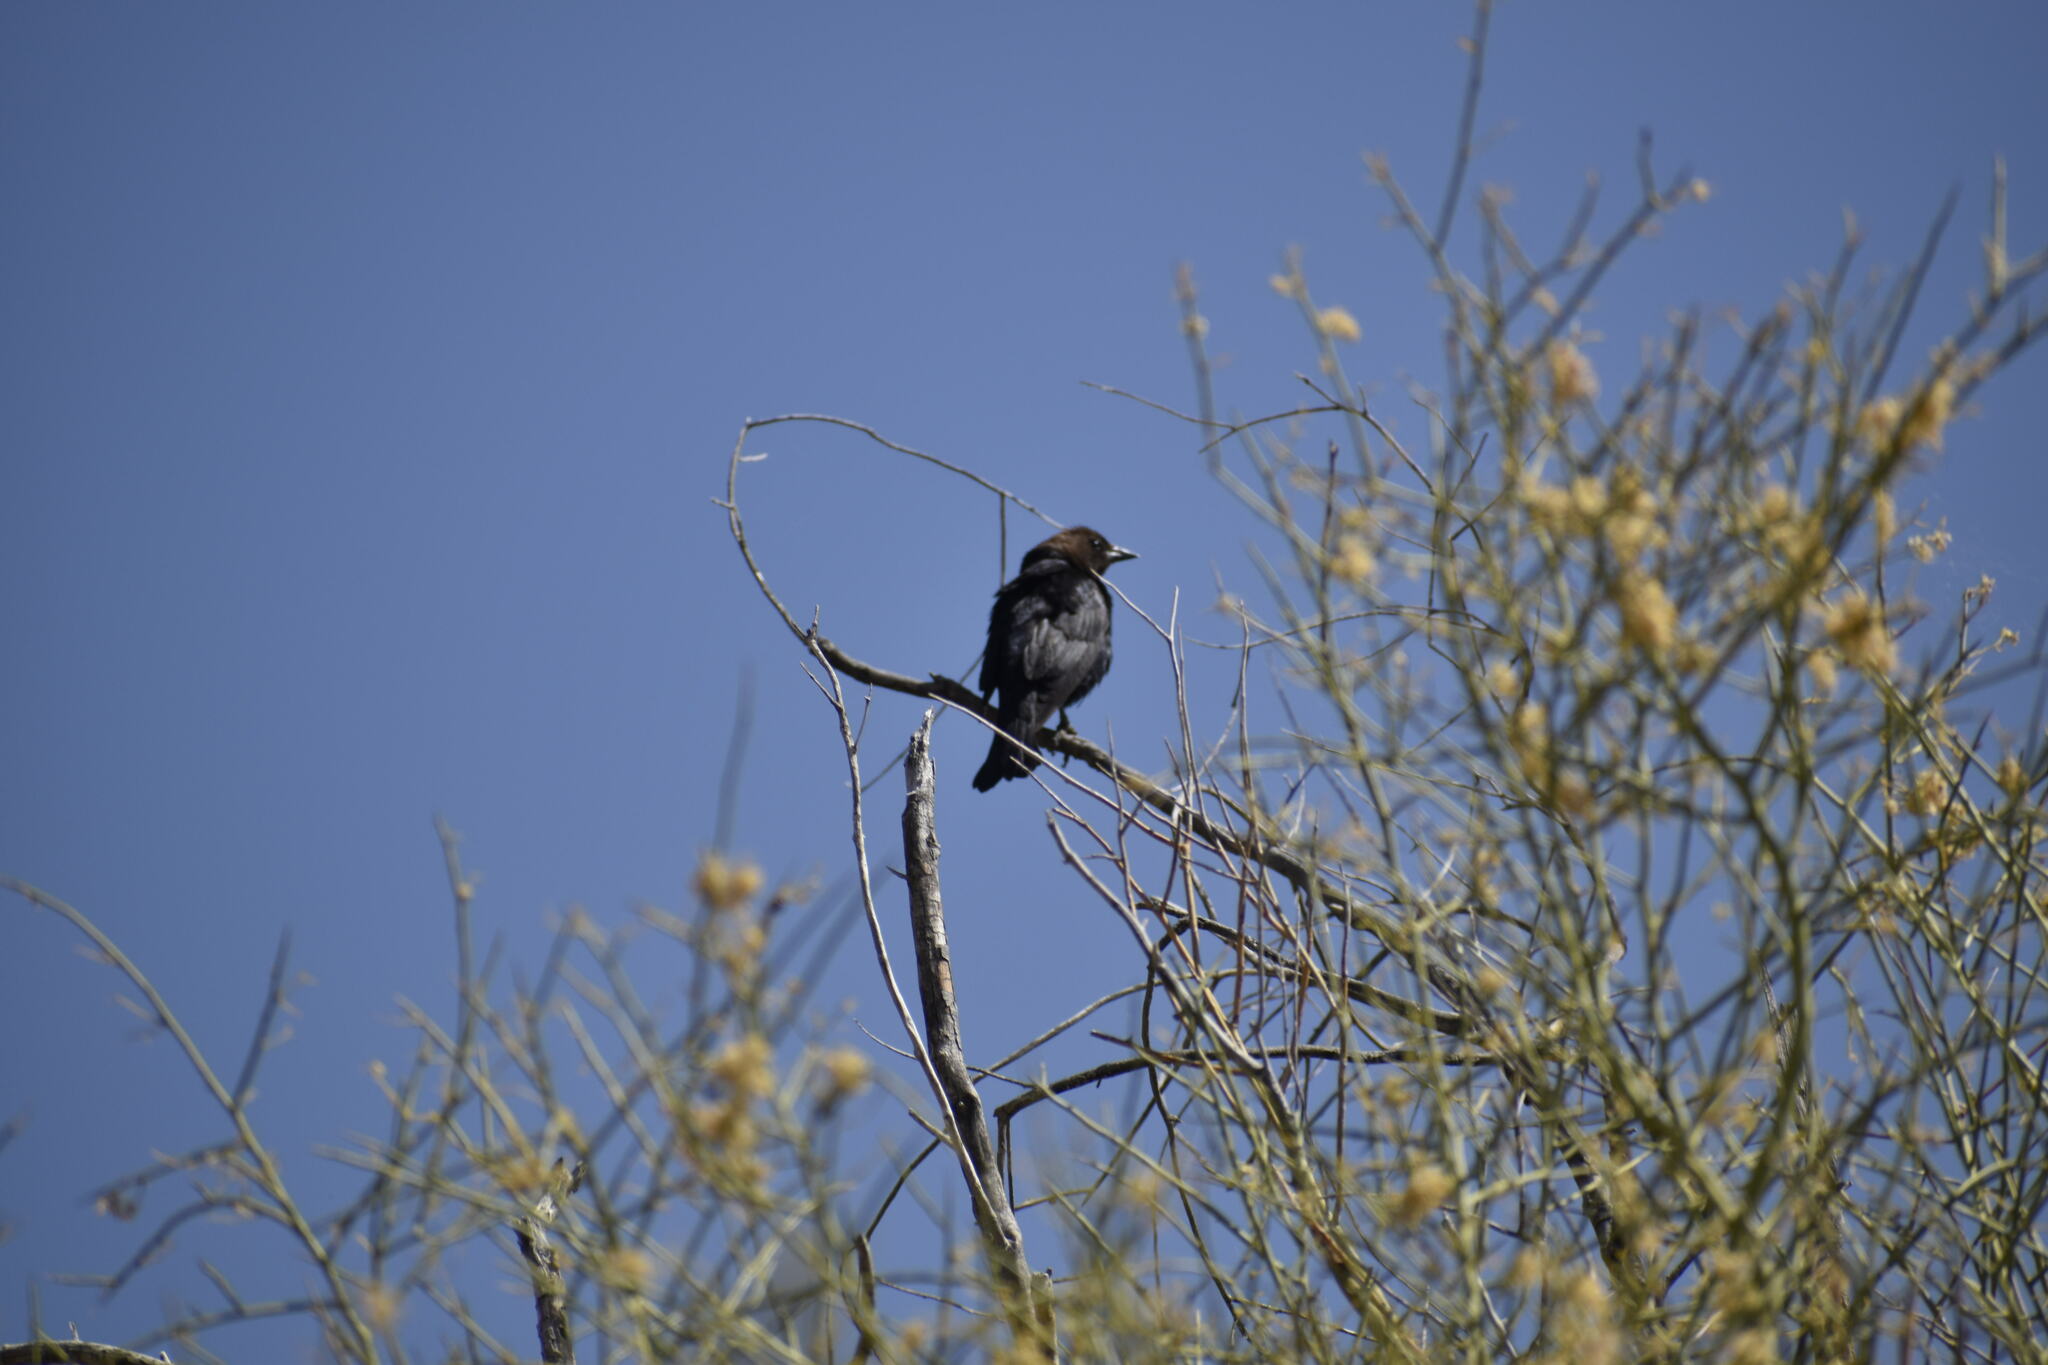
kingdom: Animalia
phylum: Chordata
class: Aves
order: Passeriformes
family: Icteridae
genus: Molothrus
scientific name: Molothrus ater
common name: Brown-headed cowbird
